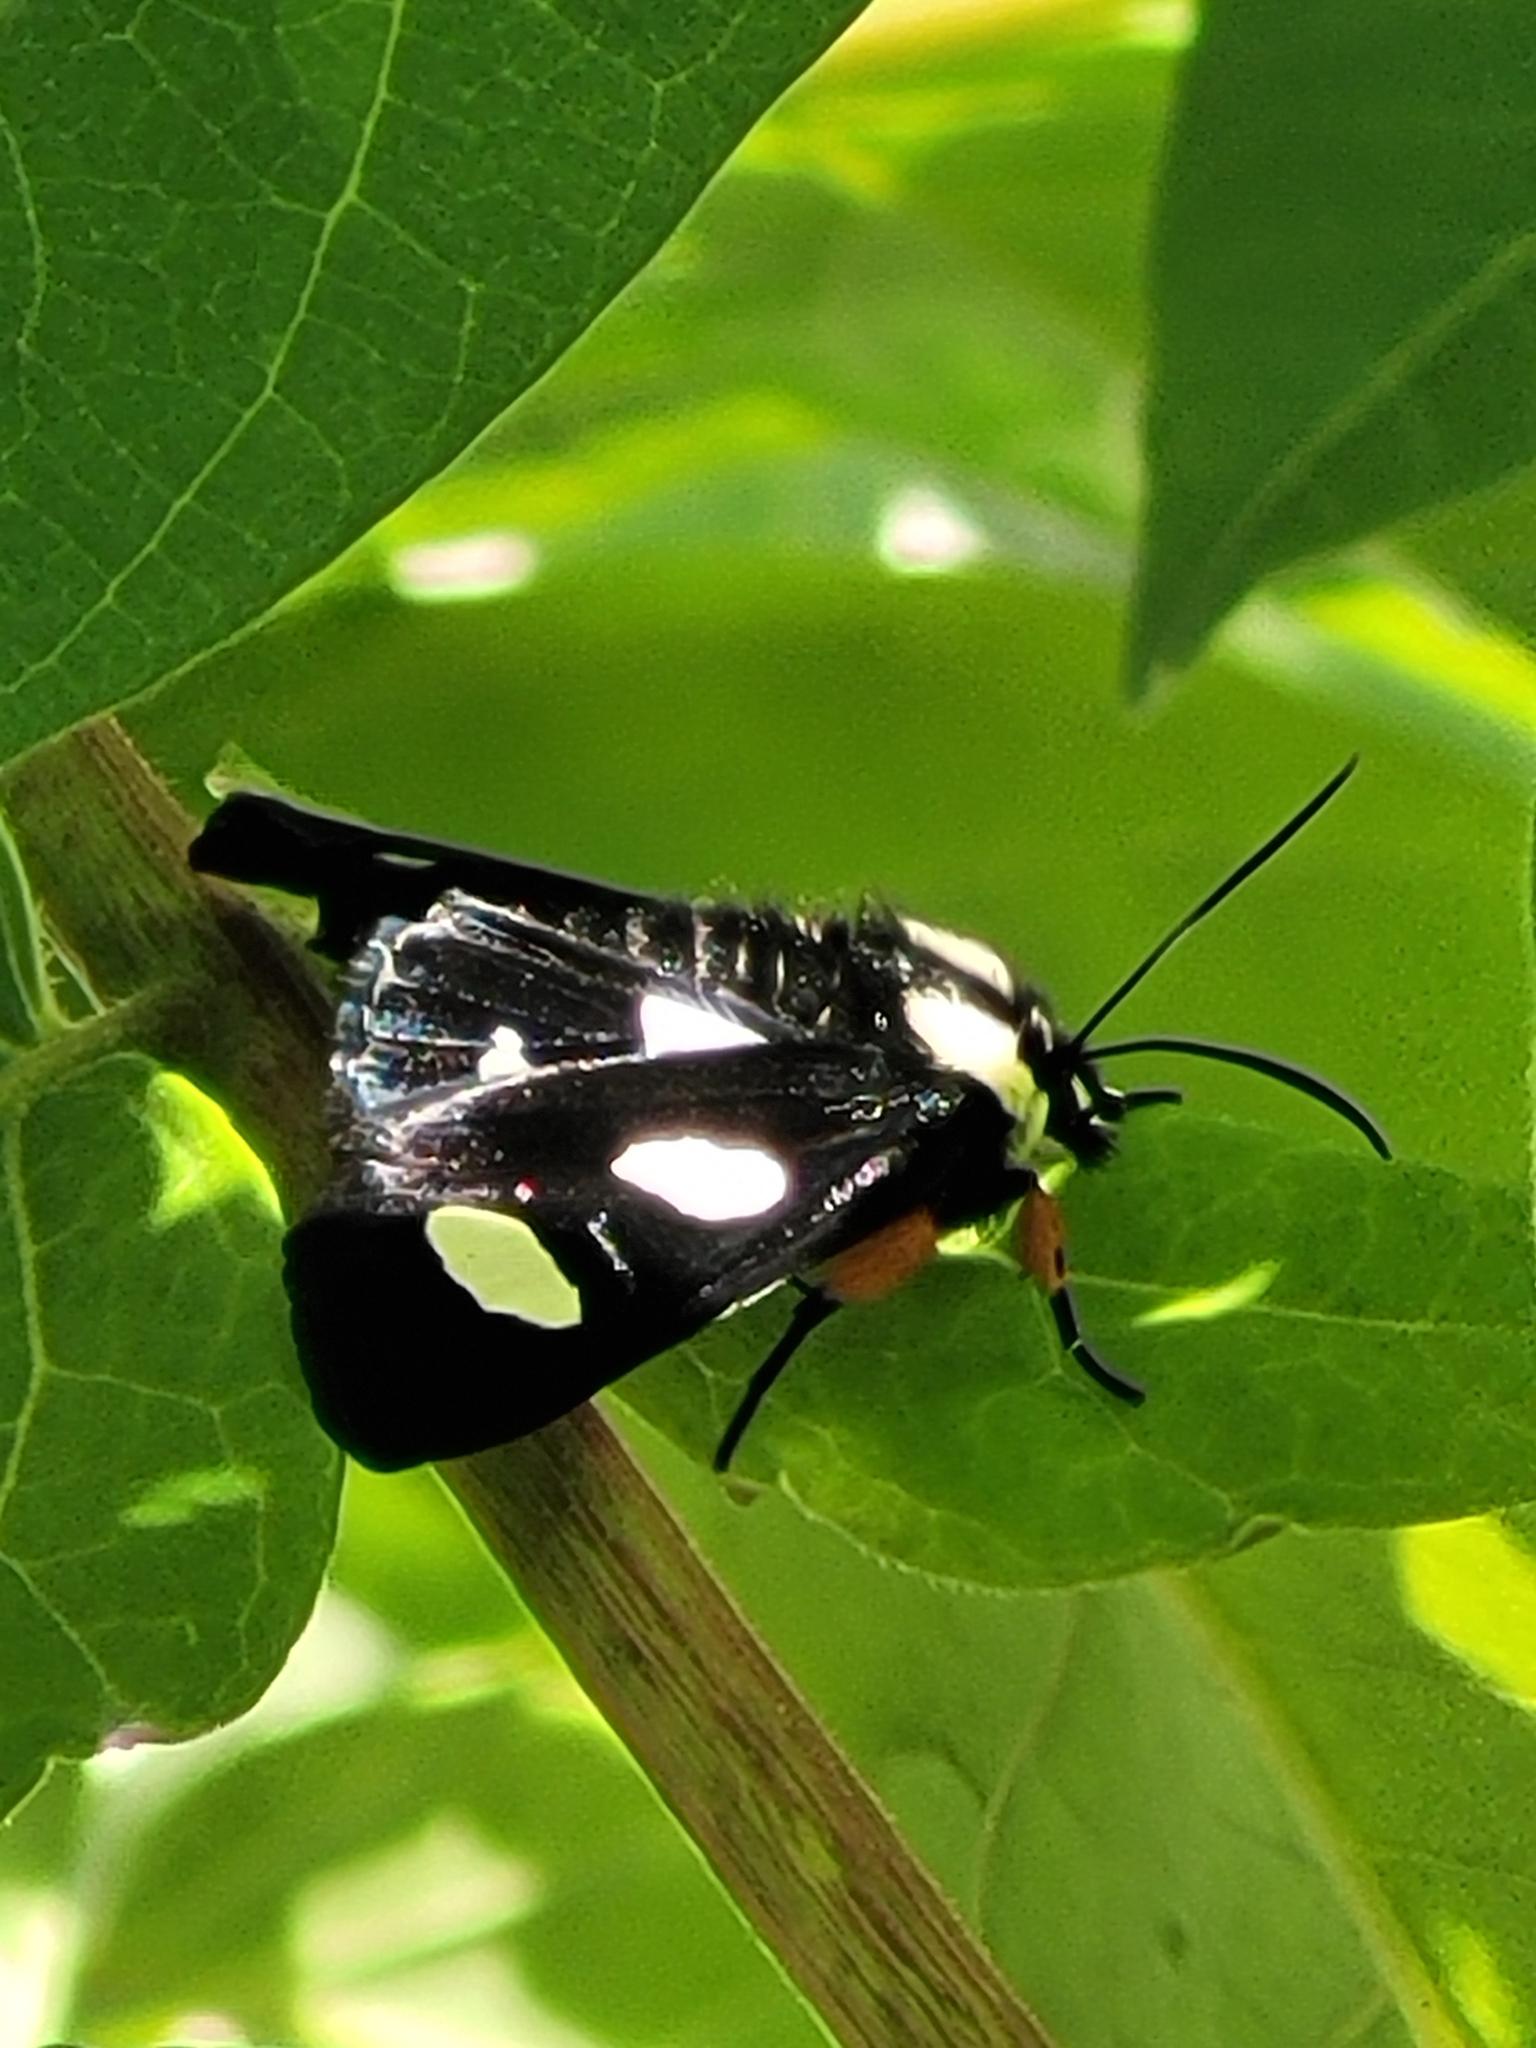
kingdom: Animalia
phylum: Arthropoda
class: Insecta
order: Lepidoptera
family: Noctuidae
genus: Alypia
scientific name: Alypia octomaculata
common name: Eight-spotted forester
